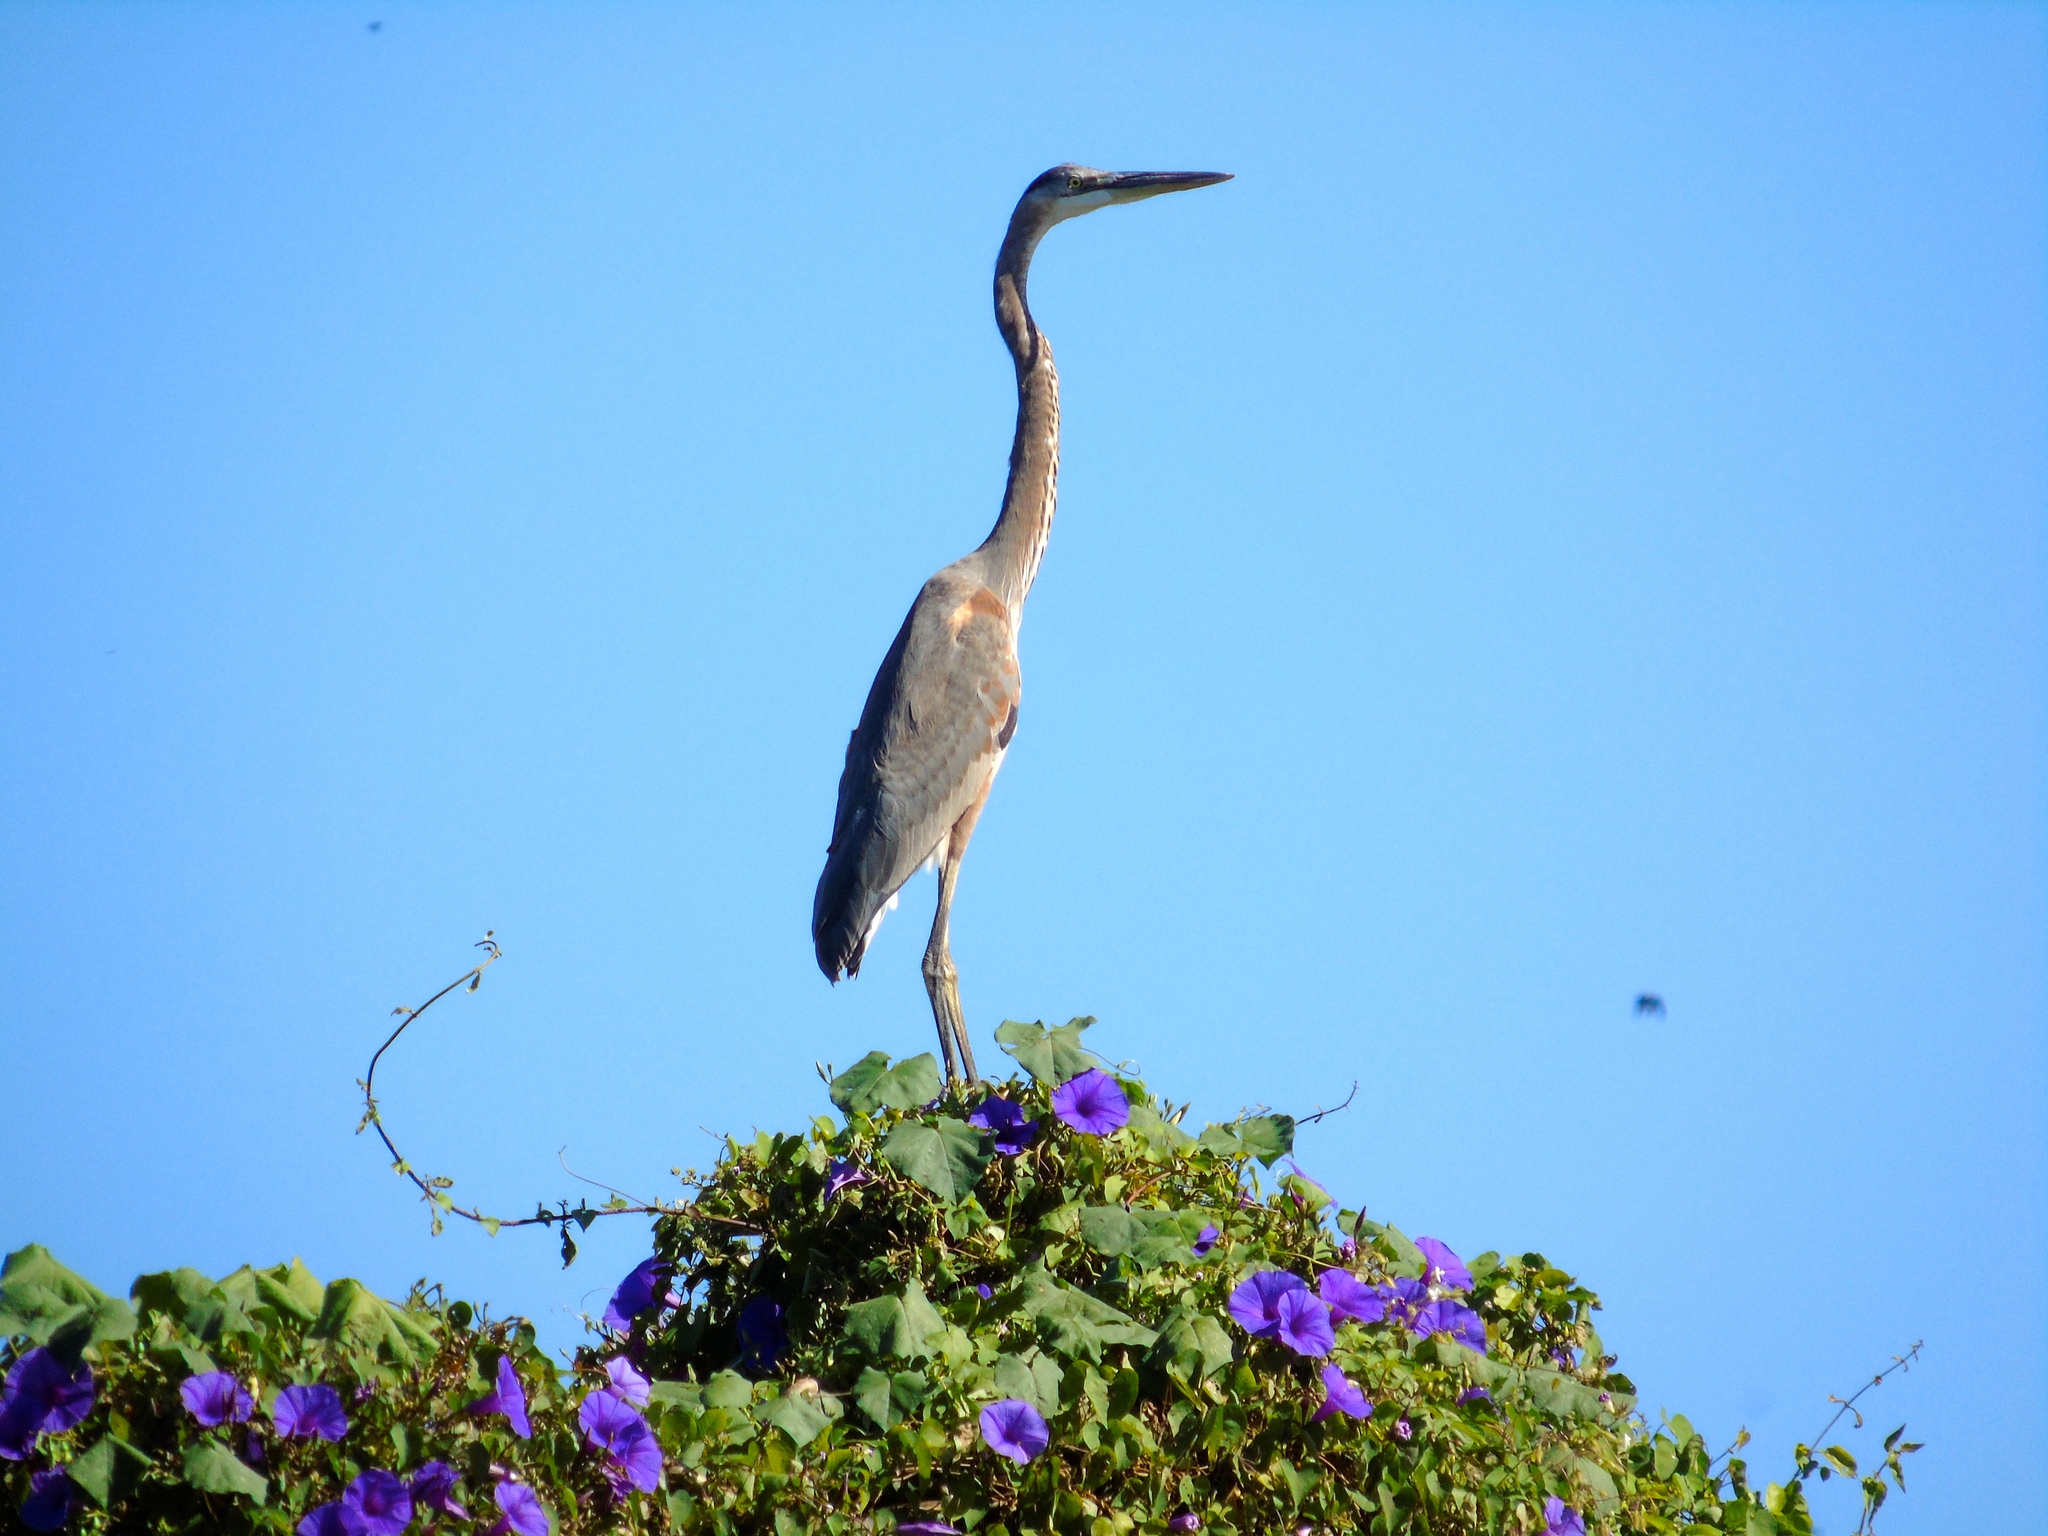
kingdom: Animalia
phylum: Chordata
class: Aves
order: Pelecaniformes
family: Ardeidae
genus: Ardea
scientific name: Ardea herodias
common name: Great blue heron
